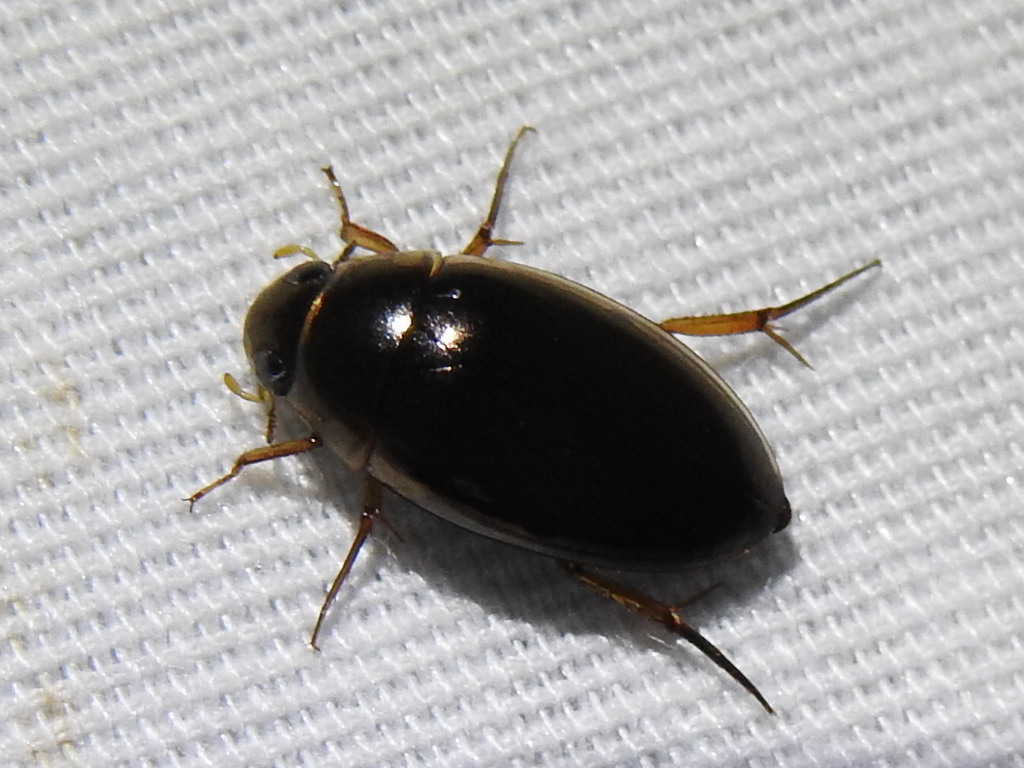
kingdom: Animalia
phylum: Arthropoda
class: Insecta
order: Coleoptera
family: Hydrophilidae
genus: Tropisternus
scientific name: Tropisternus lateralis
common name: Lateral-banded water scavenger beetle
